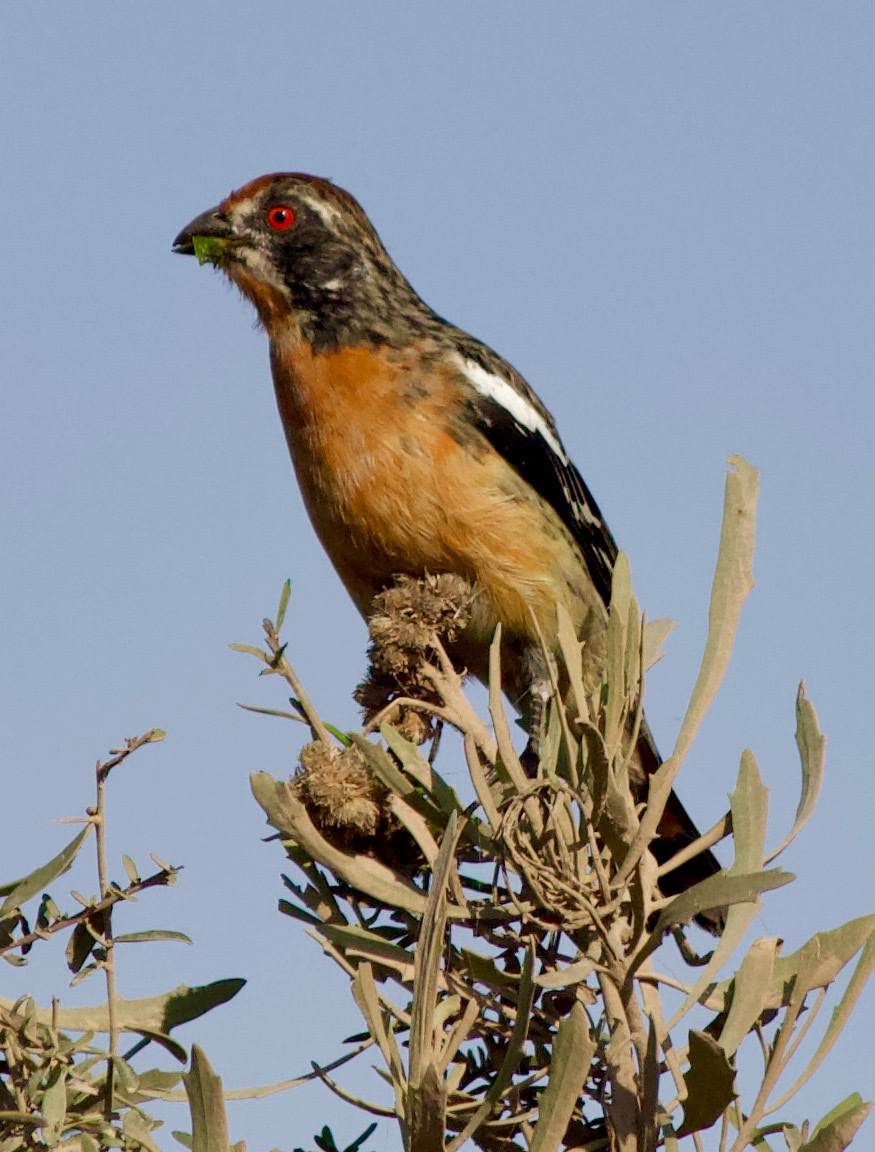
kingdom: Animalia
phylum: Chordata
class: Aves
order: Passeriformes
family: Cotingidae
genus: Phytotoma
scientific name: Phytotoma rara
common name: Rufous-tailed plantcutter
